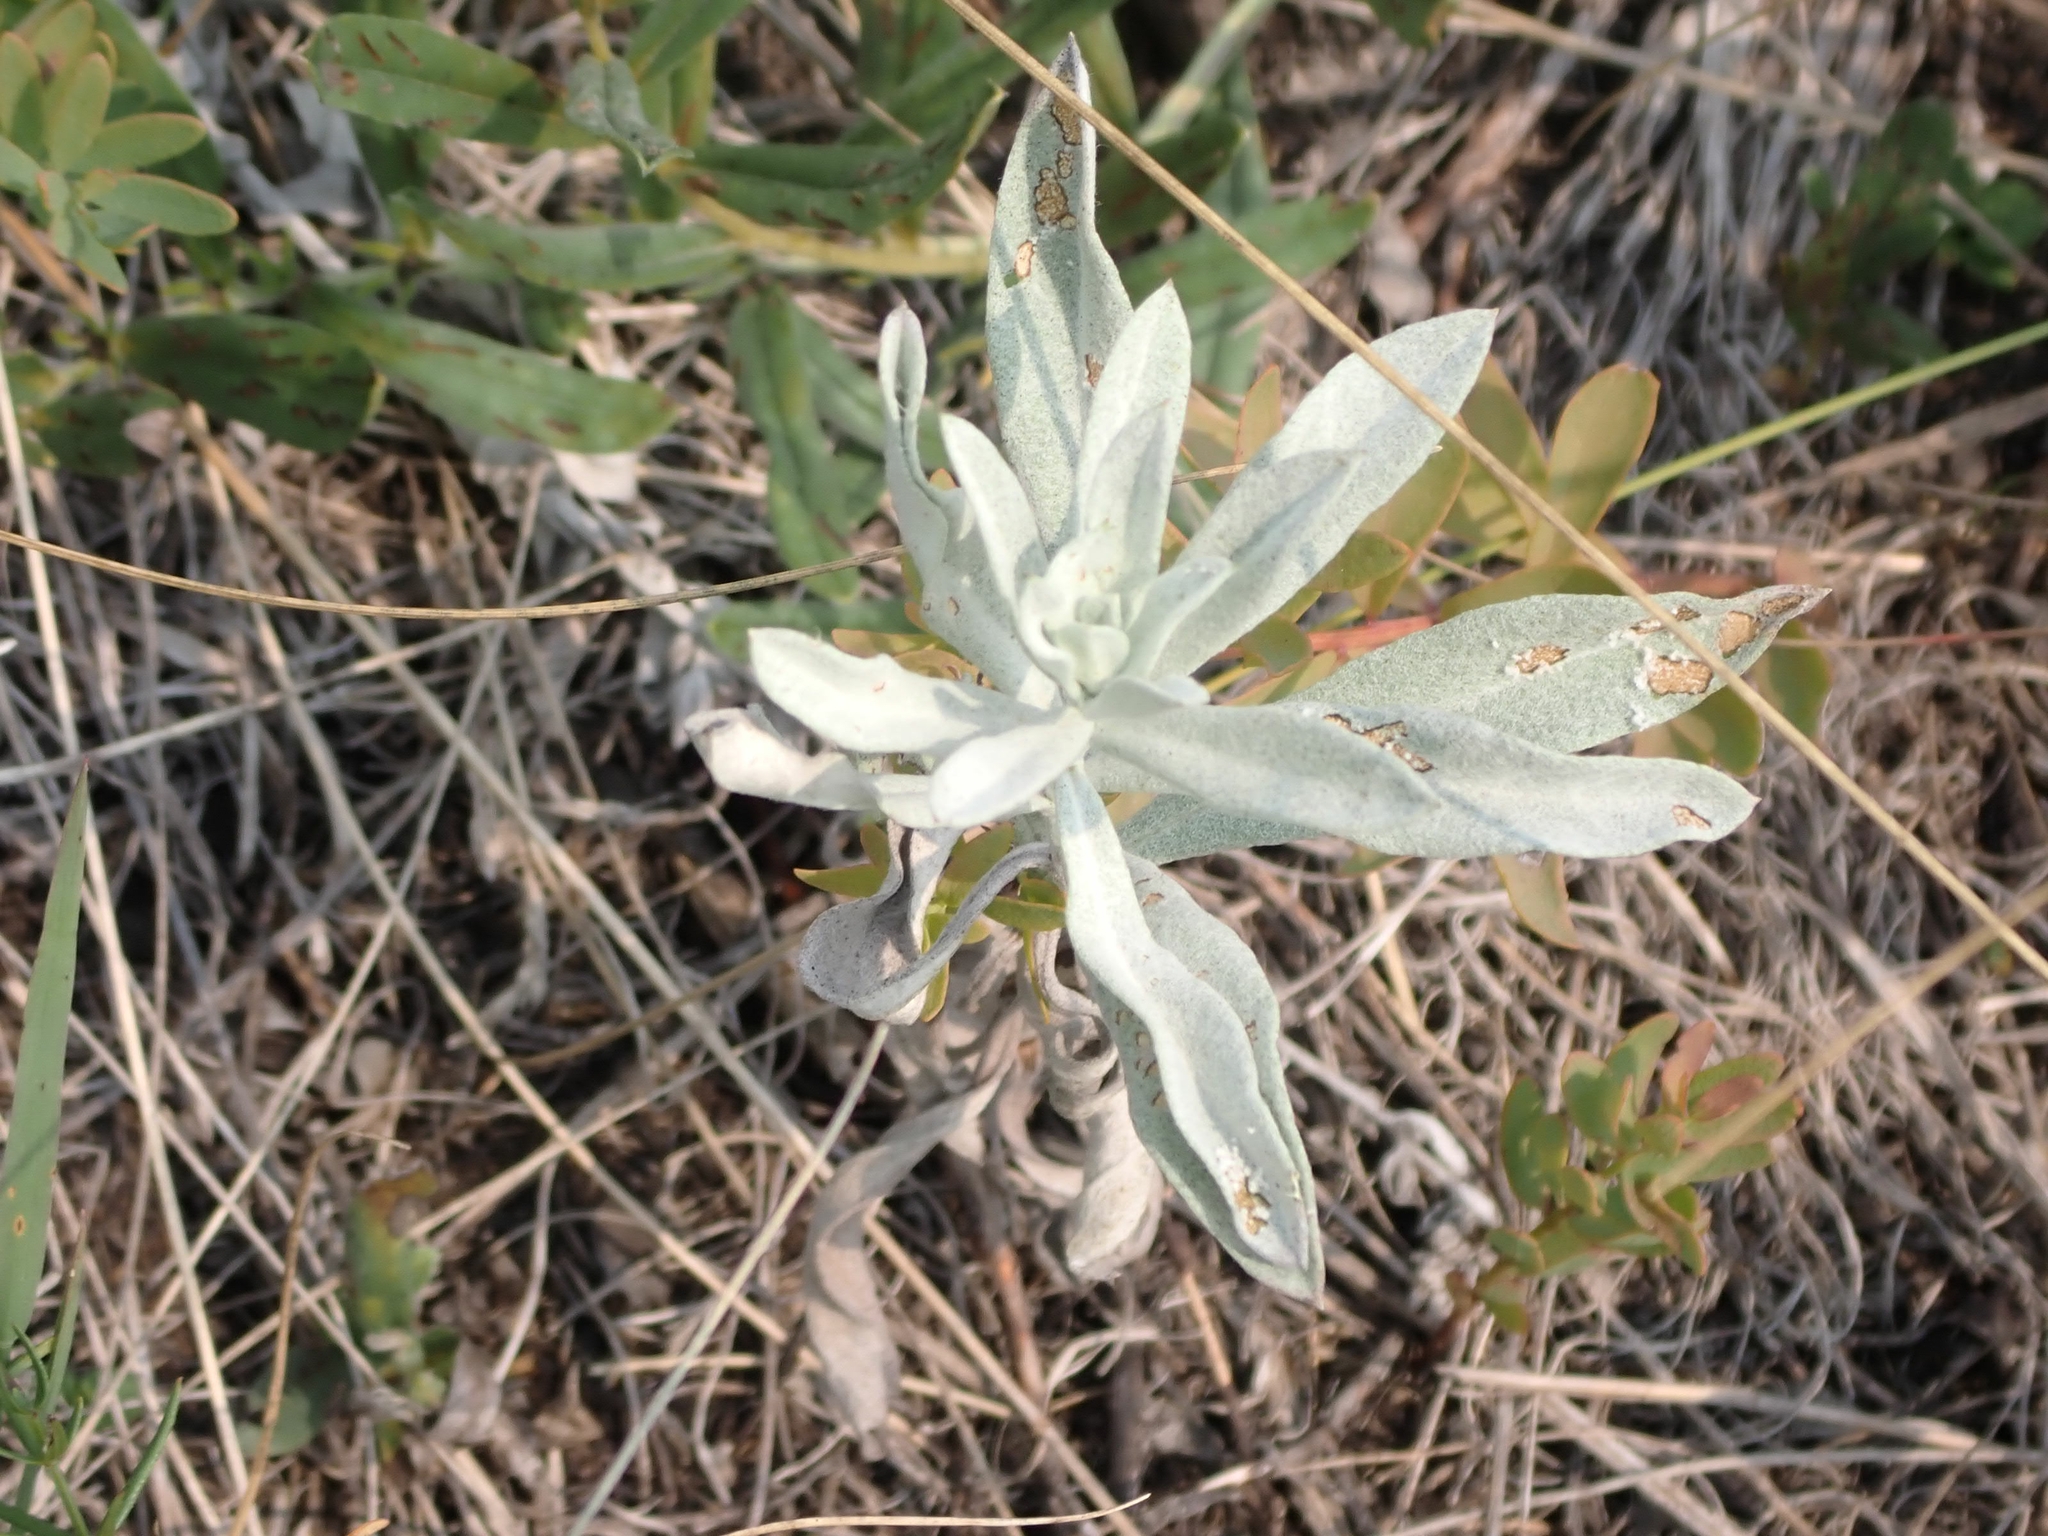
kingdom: Plantae
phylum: Tracheophyta
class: Magnoliopsida
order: Asterales
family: Asteraceae
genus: Artemisia
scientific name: Artemisia ludoviciana
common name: Western mugwort
